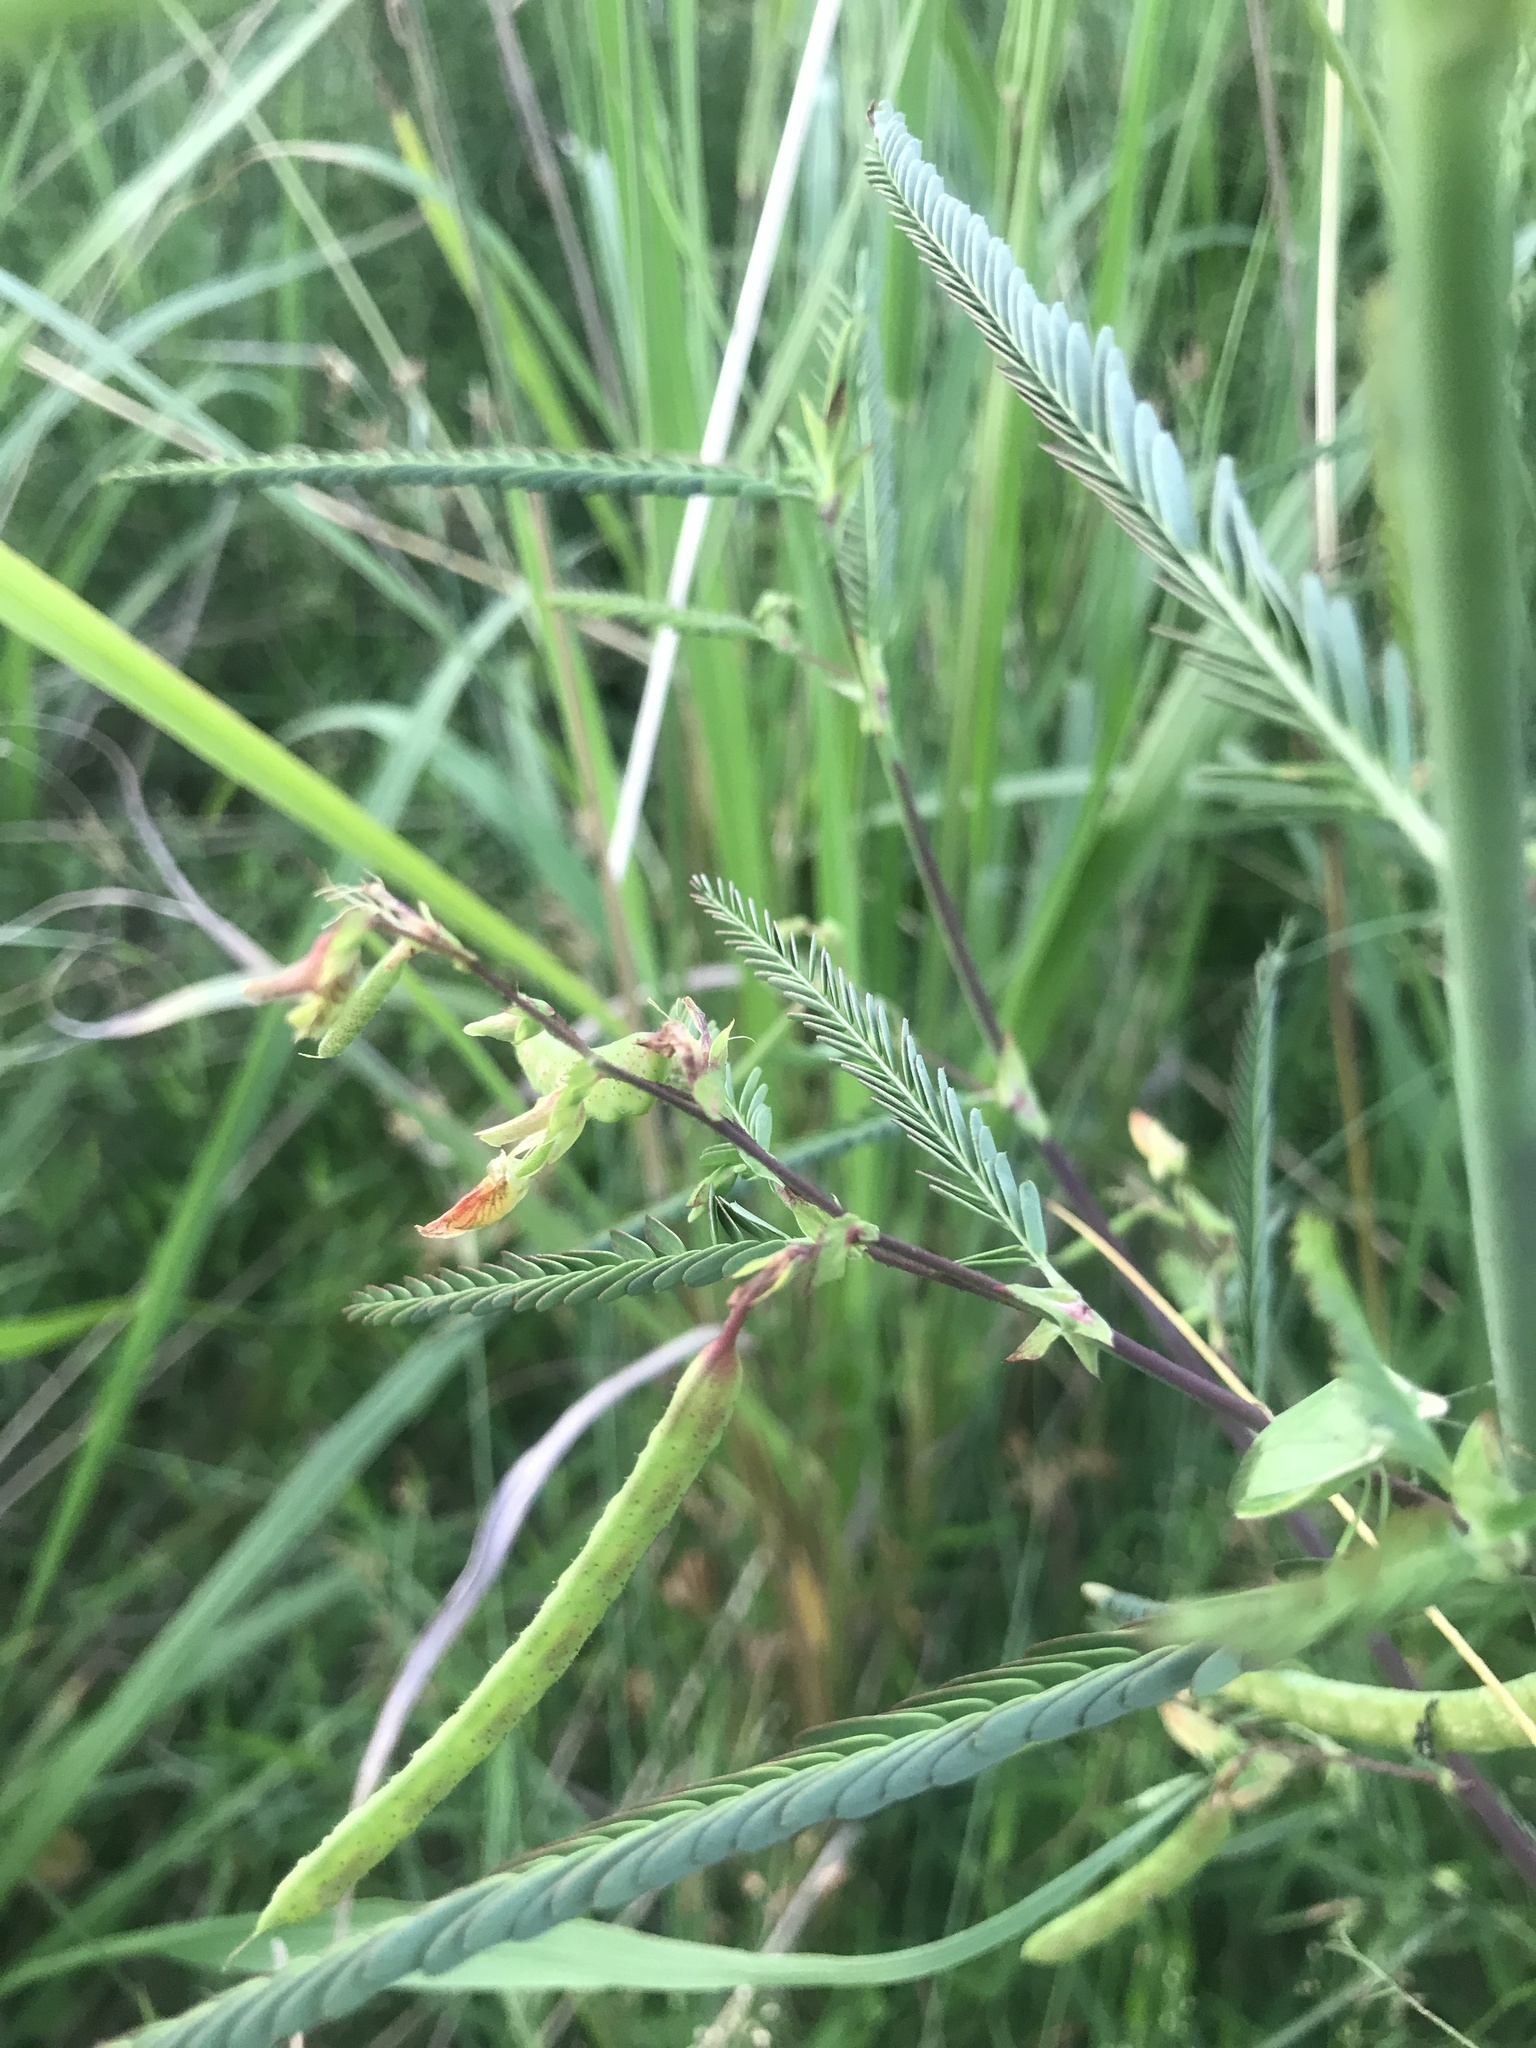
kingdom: Plantae
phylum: Tracheophyta
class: Magnoliopsida
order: Fabales
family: Fabaceae
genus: Aeschynomene
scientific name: Aeschynomene indica
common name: Indian jointvetch
